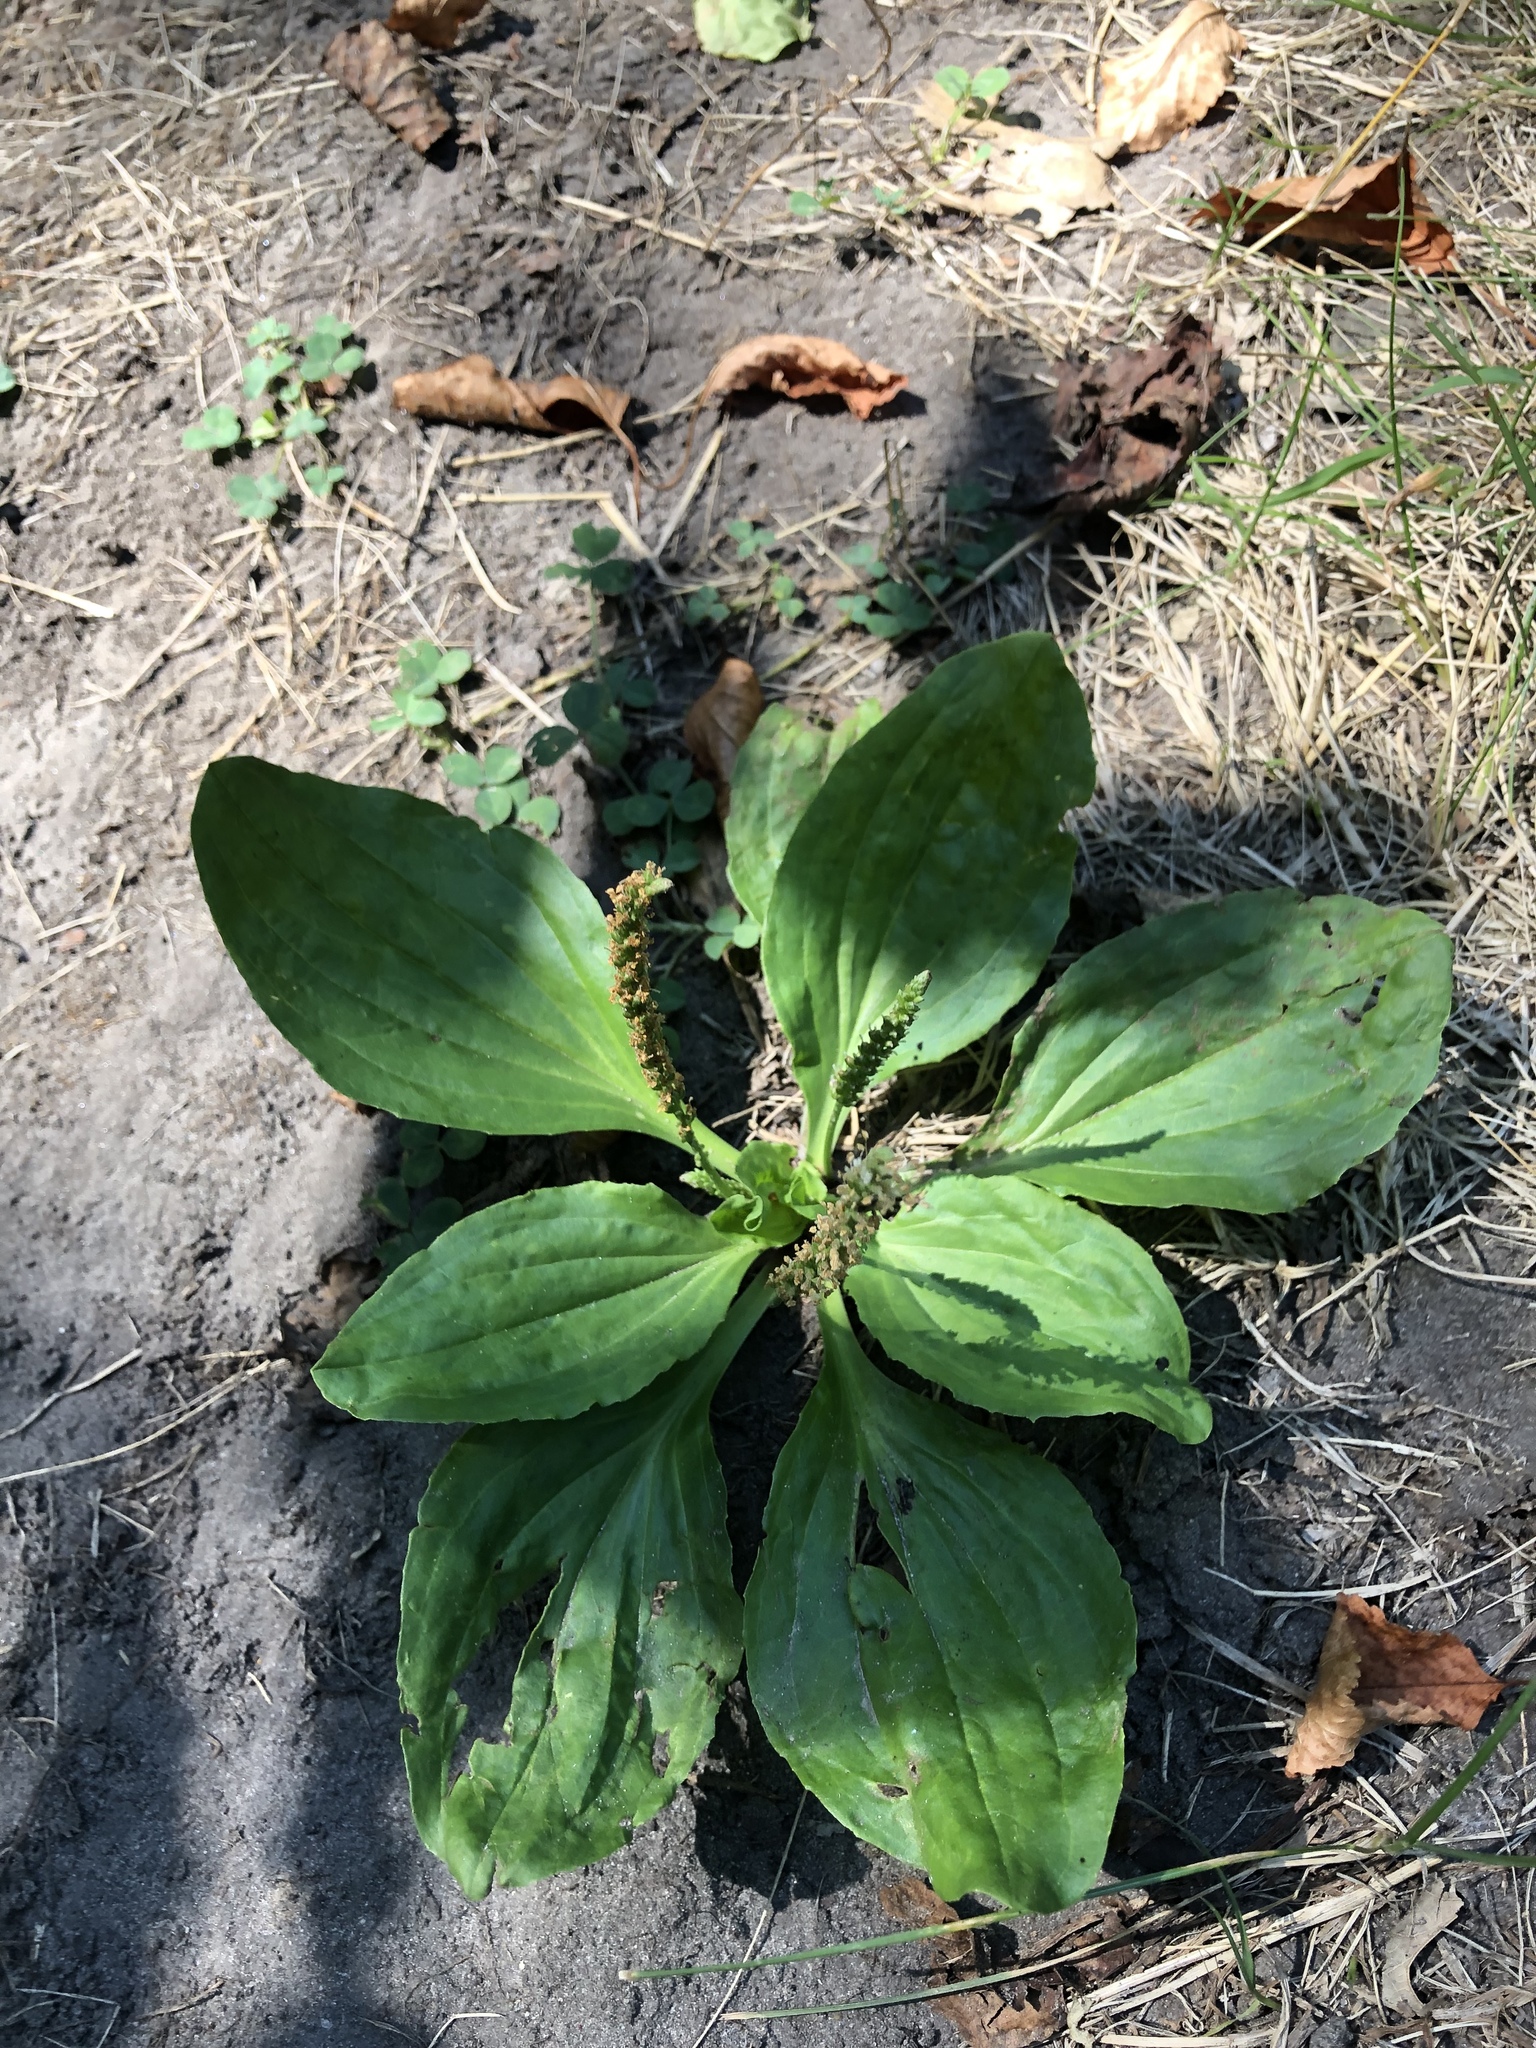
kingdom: Plantae
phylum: Tracheophyta
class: Magnoliopsida
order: Lamiales
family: Plantaginaceae
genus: Plantago
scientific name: Plantago rugelii
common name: American plantain
